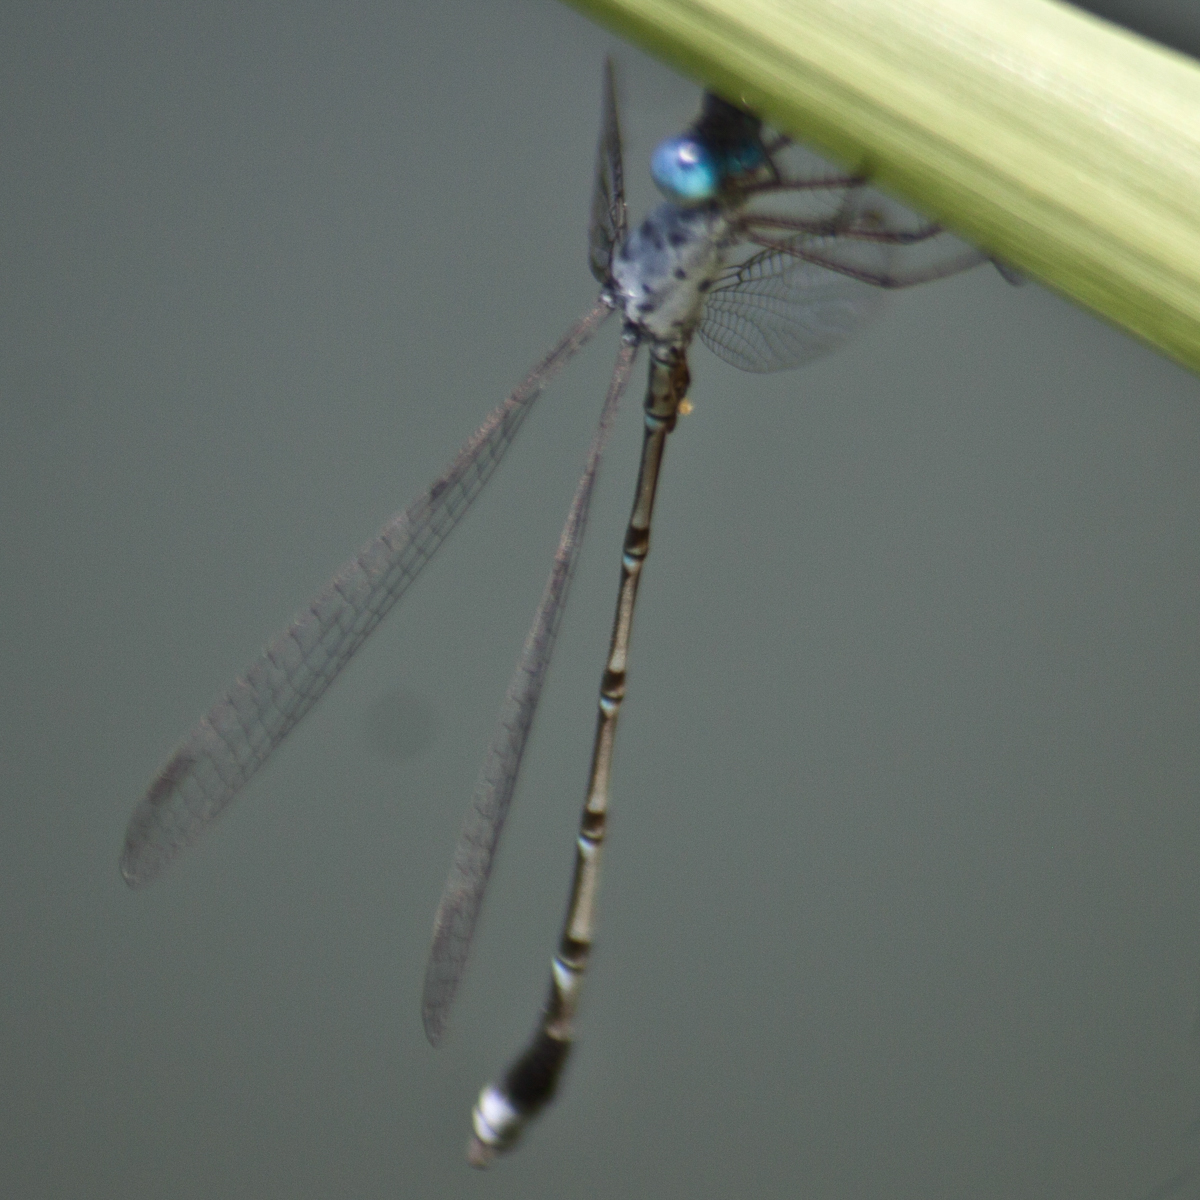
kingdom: Animalia
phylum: Arthropoda
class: Insecta
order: Odonata
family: Lestidae
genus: Lestes
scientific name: Lestes praemorsus
